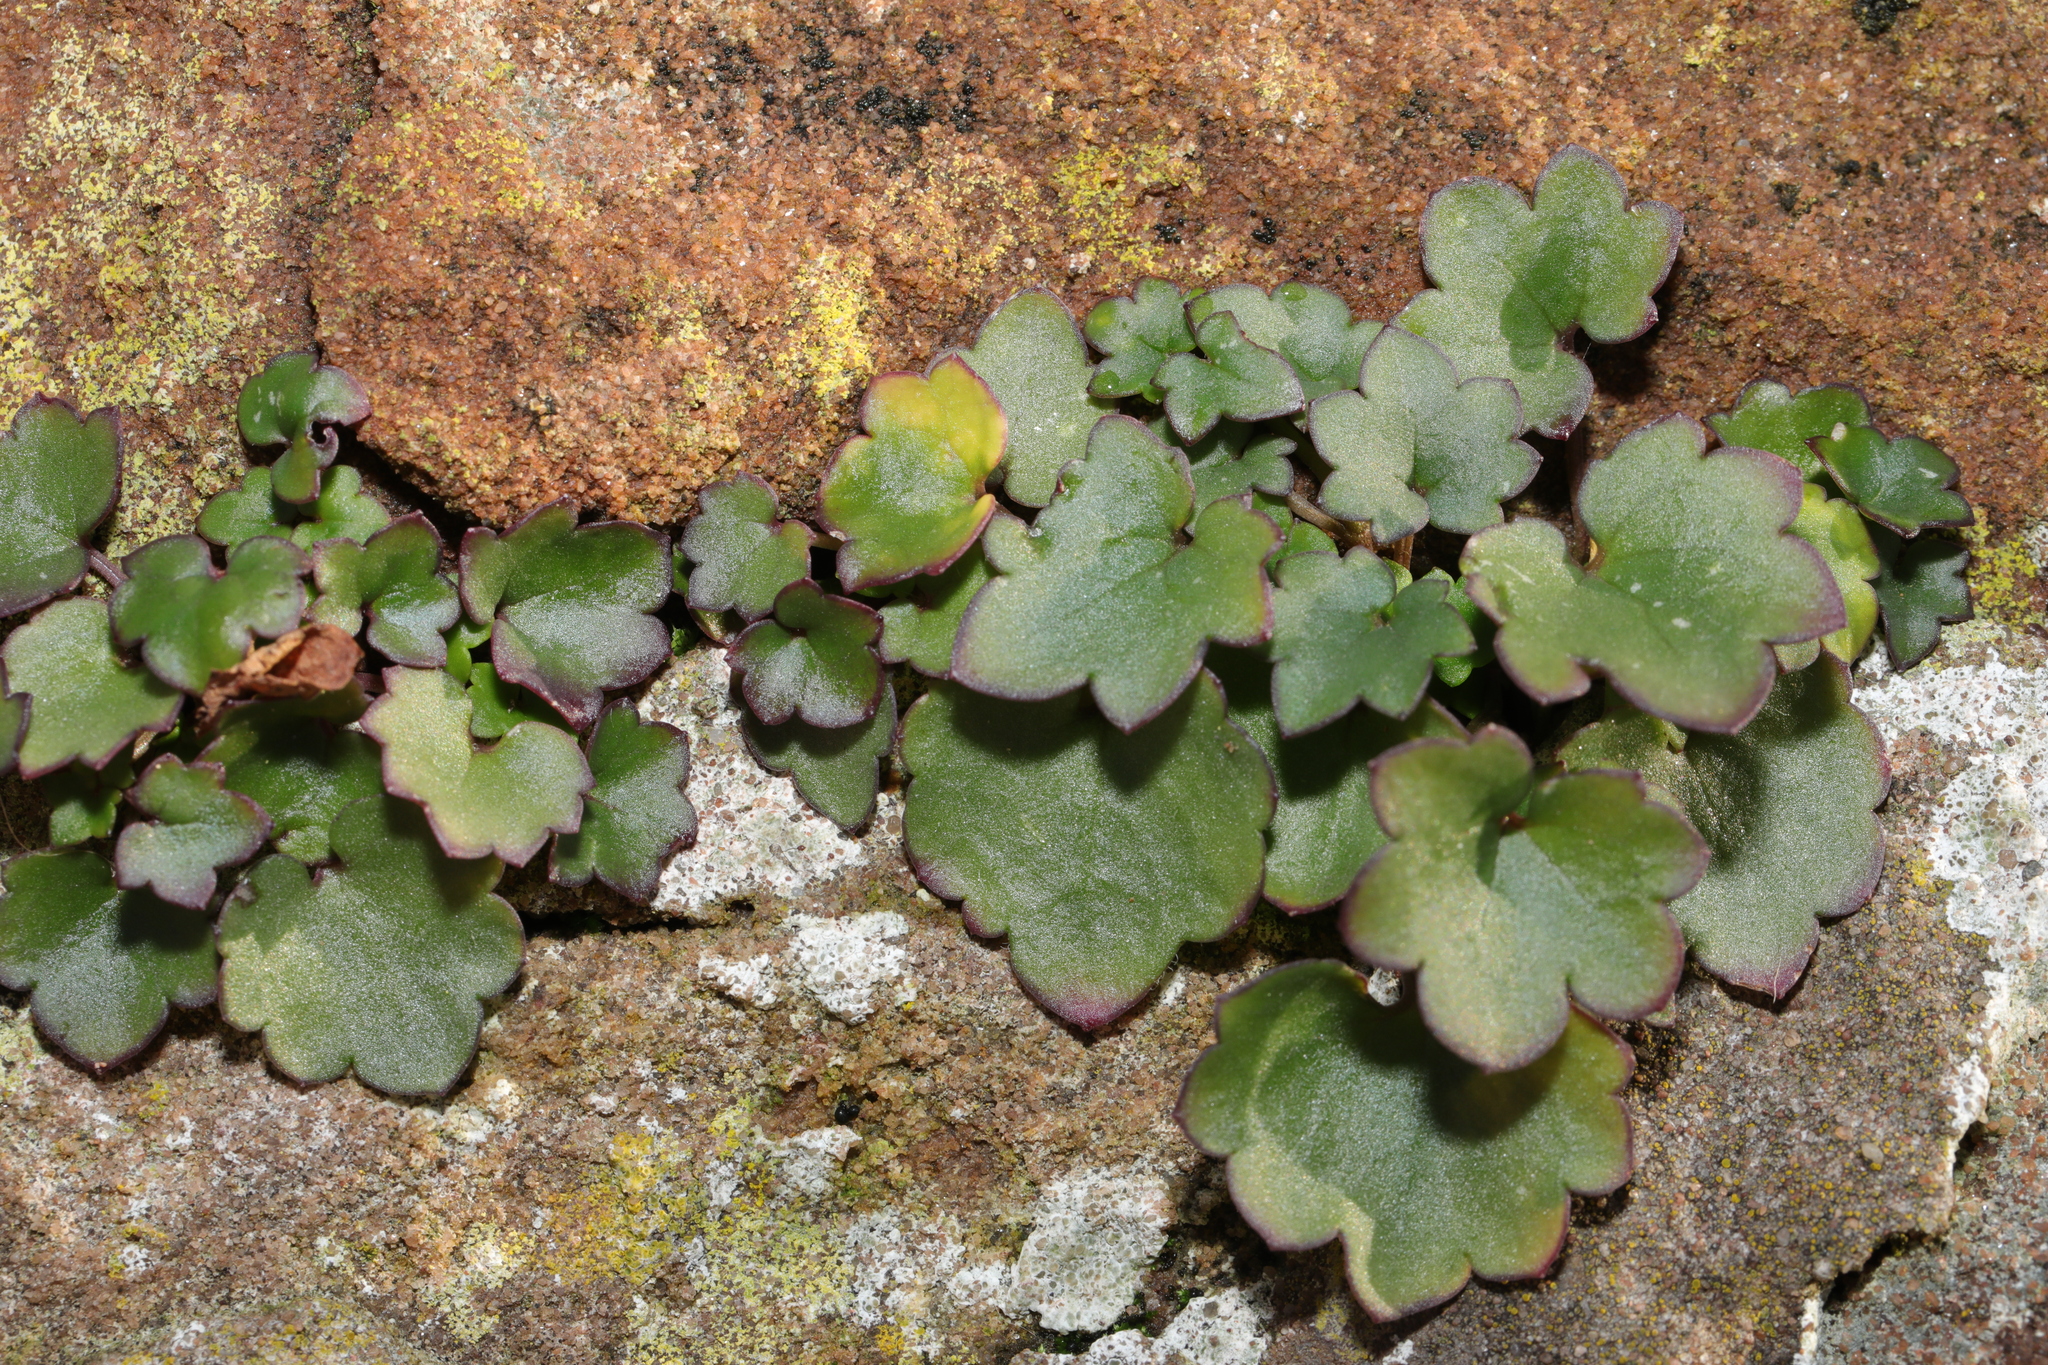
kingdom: Plantae
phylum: Tracheophyta
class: Magnoliopsida
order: Lamiales
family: Plantaginaceae
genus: Cymbalaria
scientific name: Cymbalaria muralis
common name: Ivy-leaved toadflax
